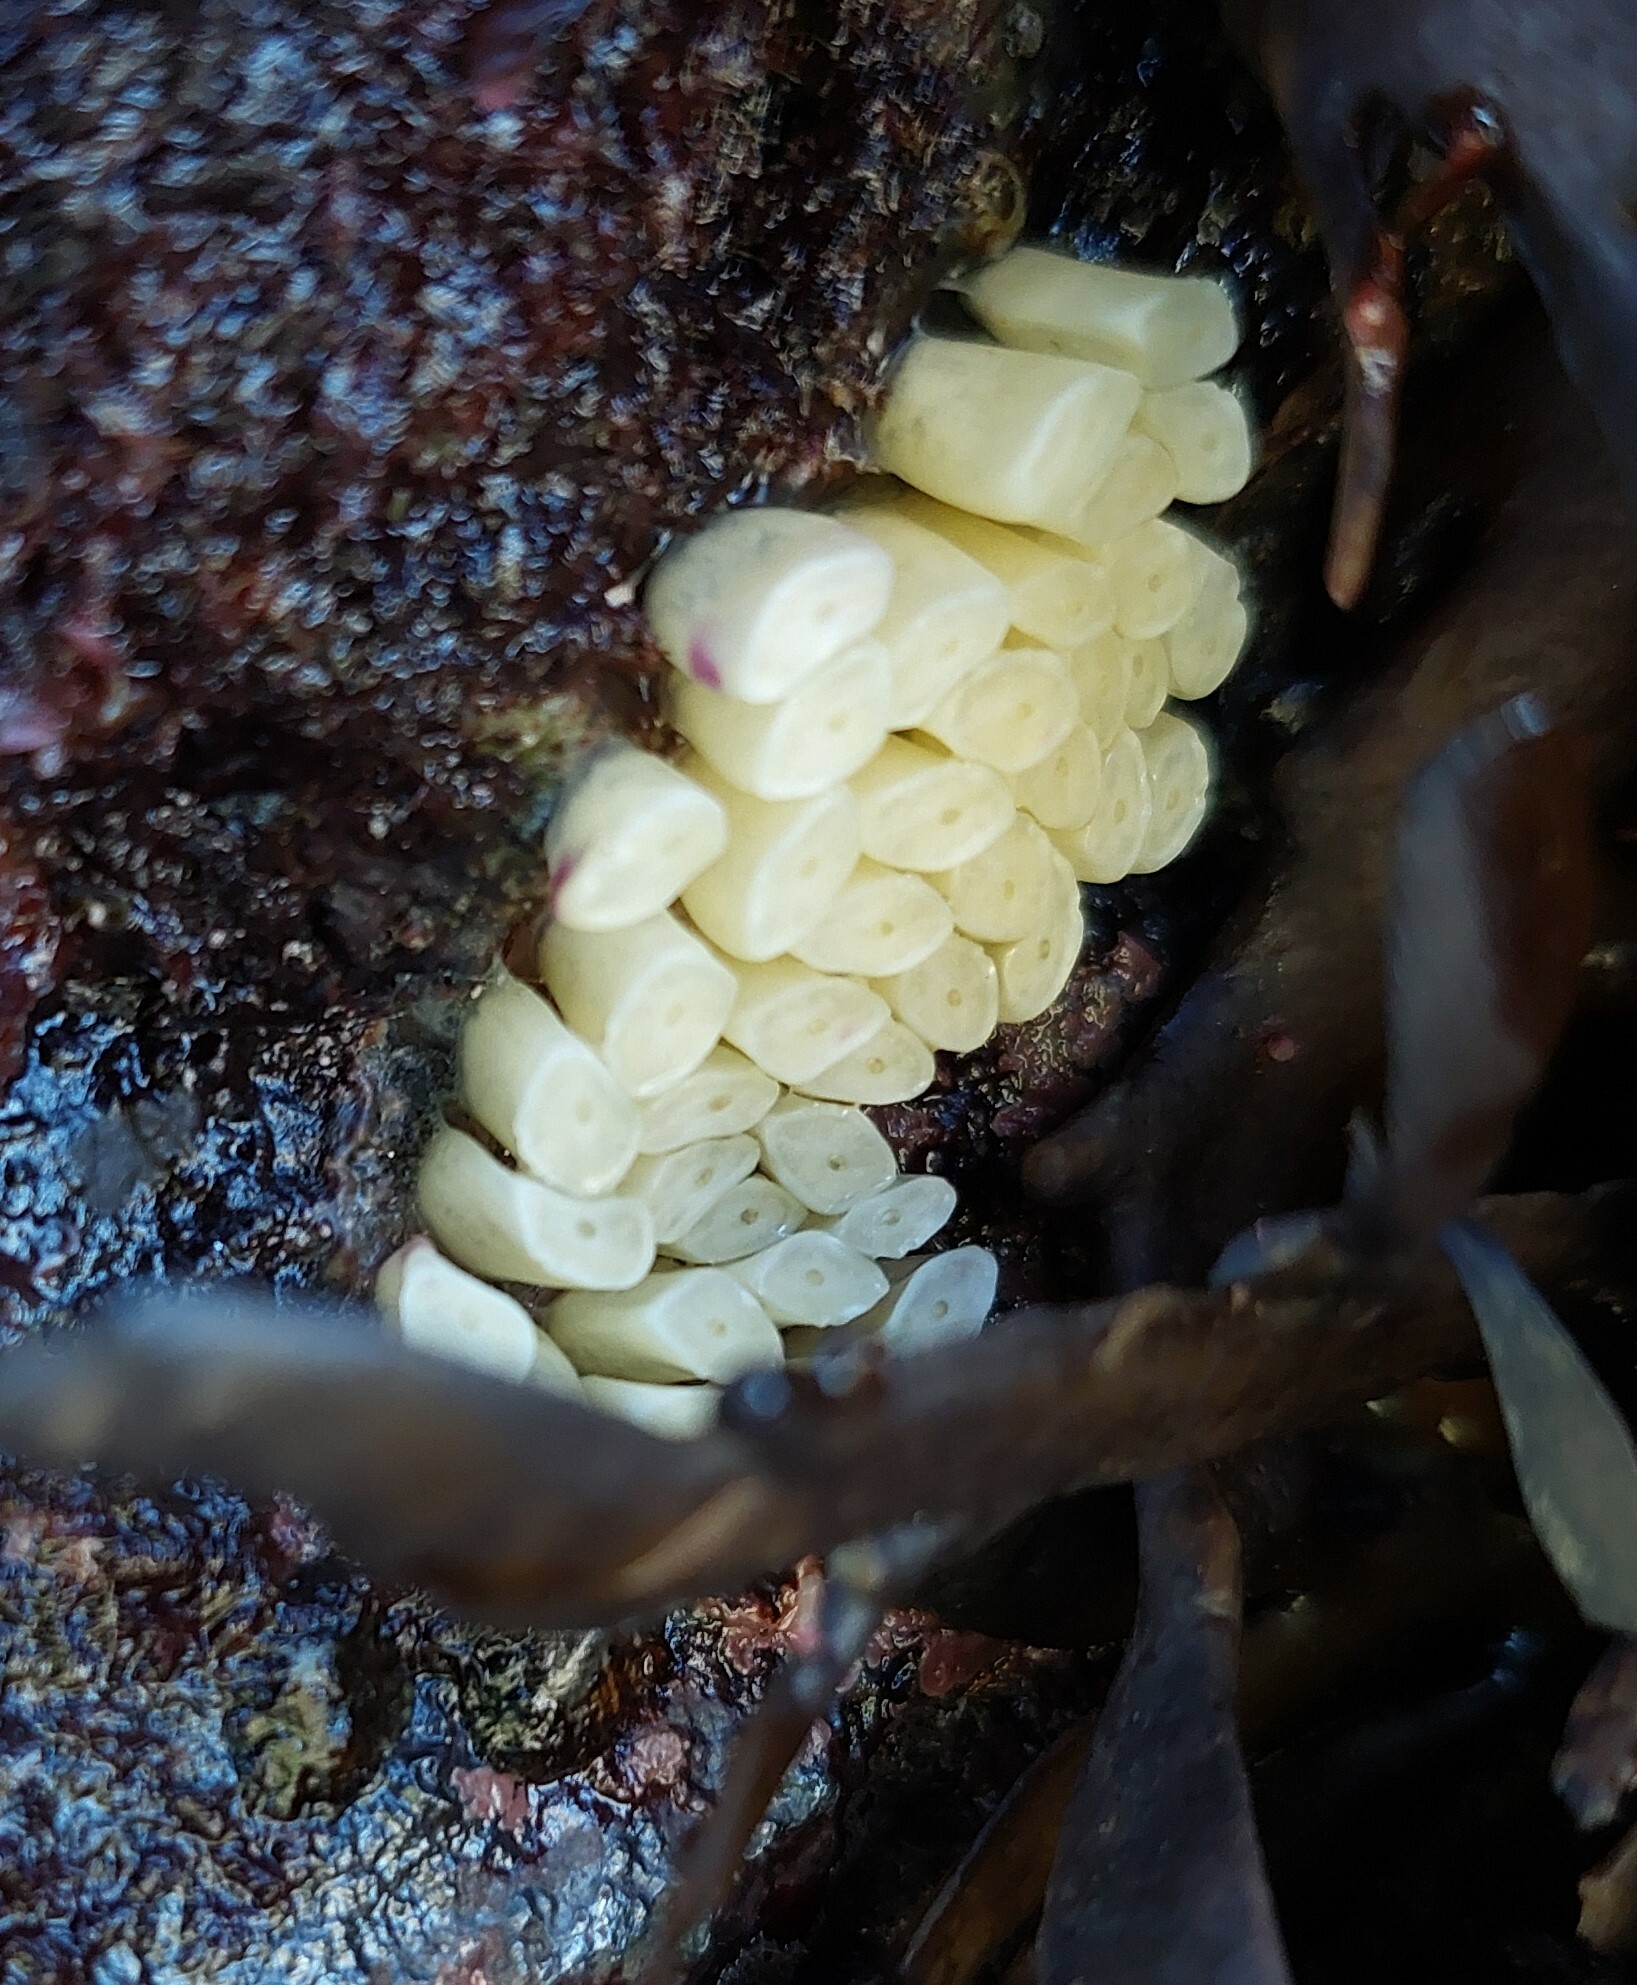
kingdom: Animalia
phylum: Mollusca
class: Gastropoda
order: Neogastropoda
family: Muricidae
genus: Dicathais
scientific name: Dicathais orbita
